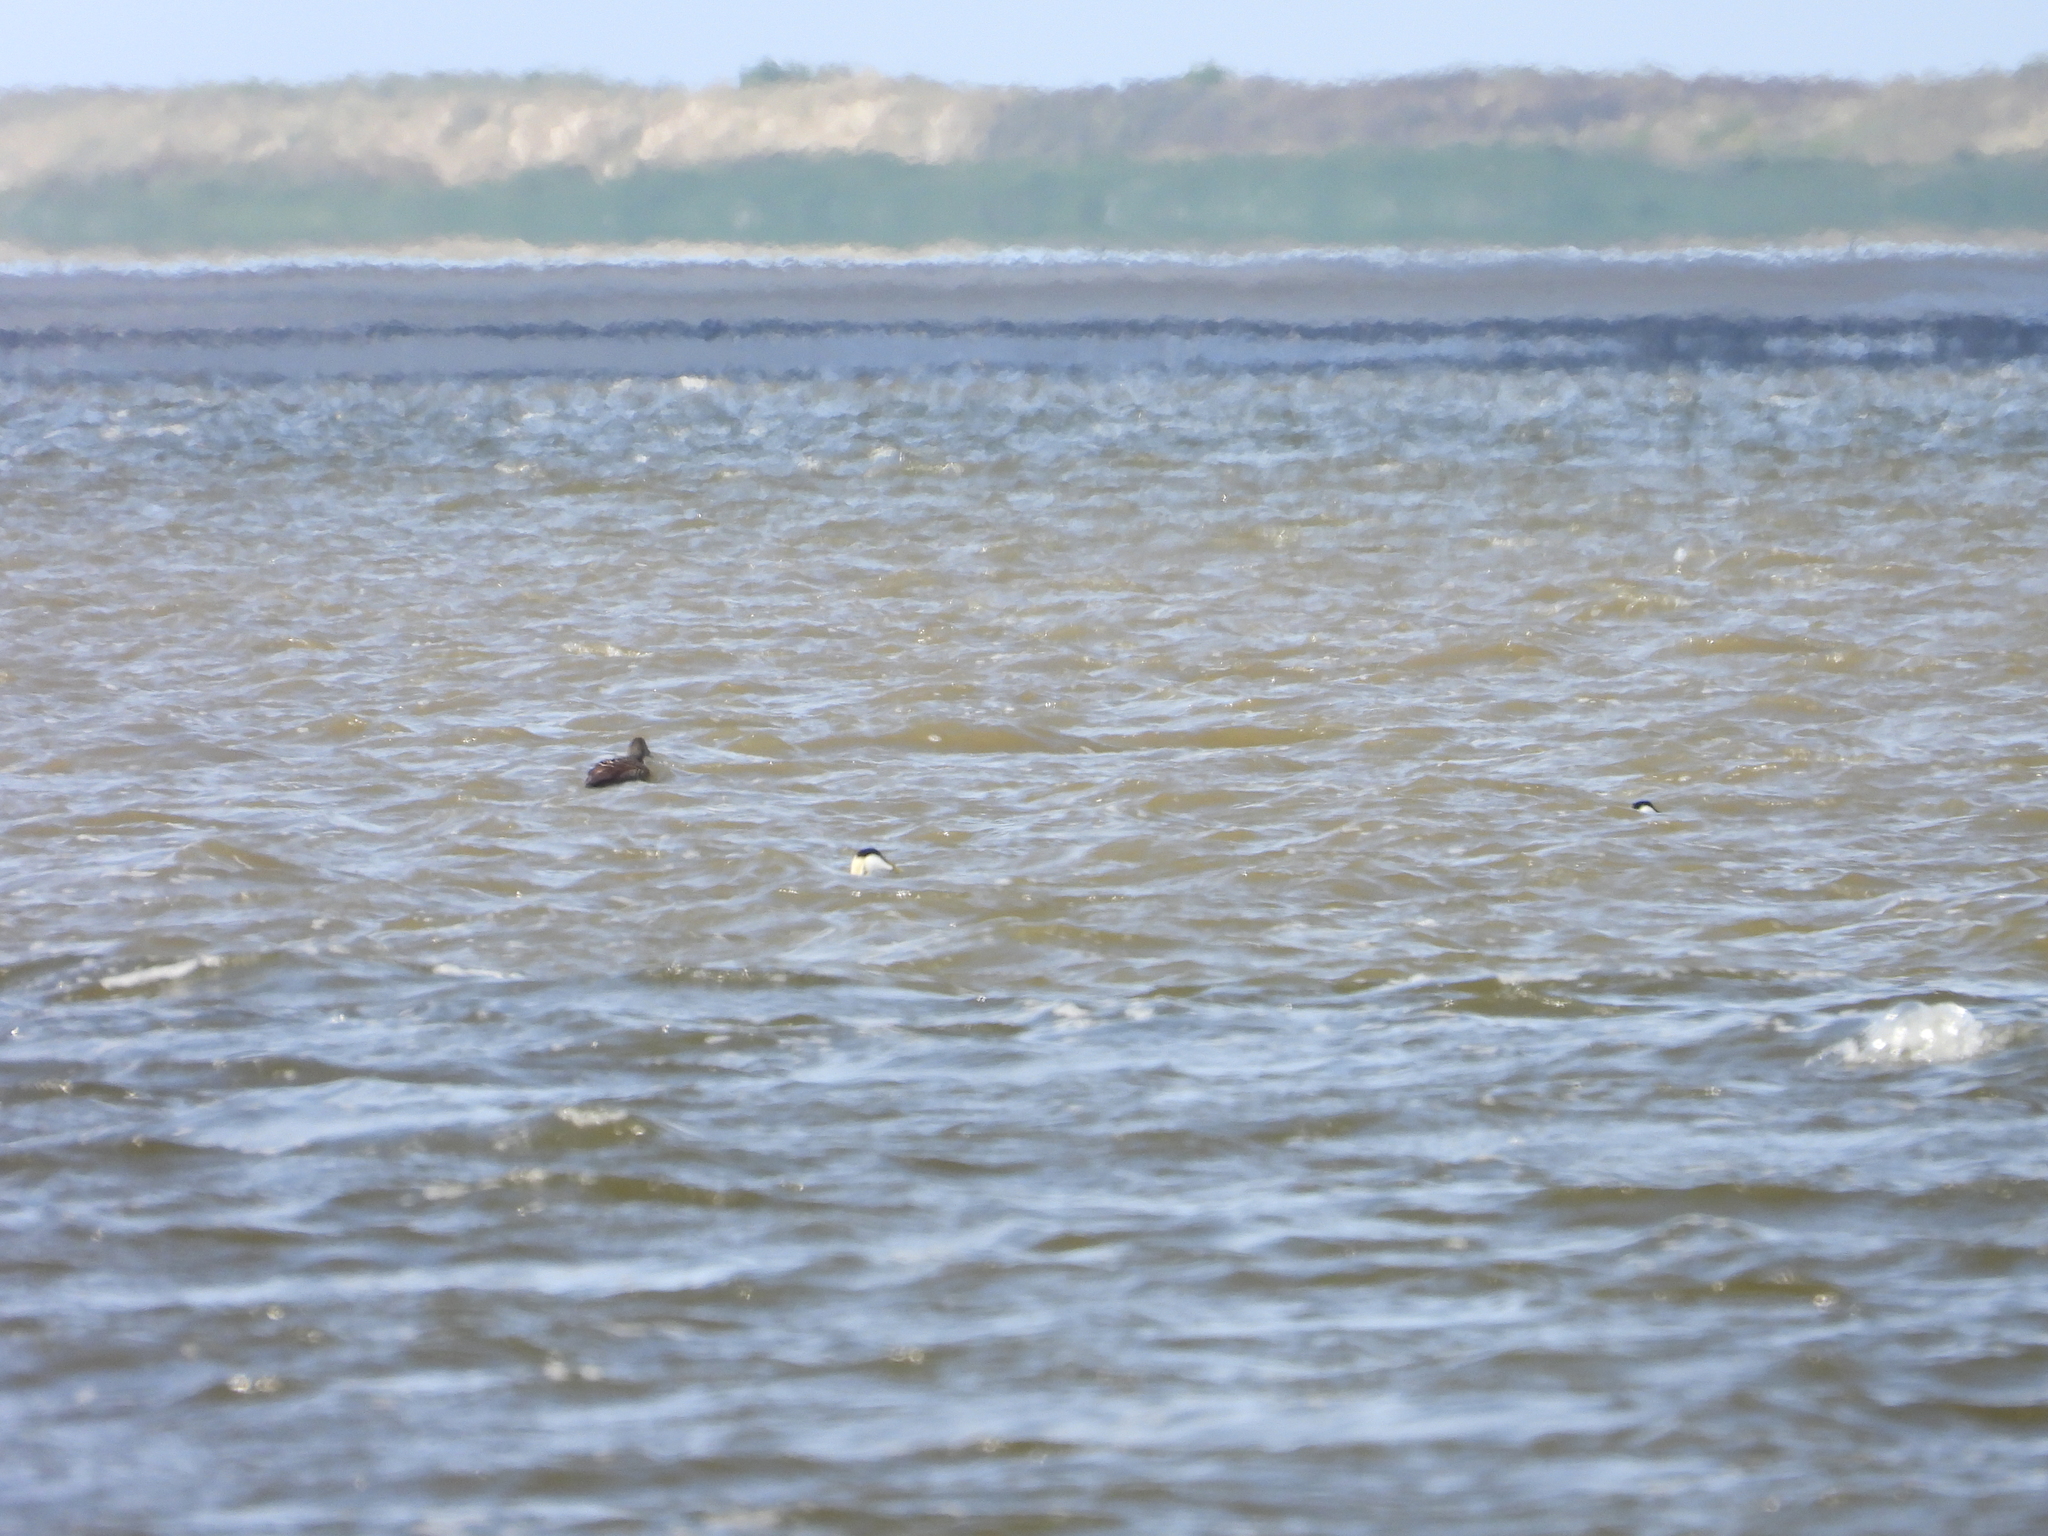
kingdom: Animalia
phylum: Chordata
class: Aves
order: Anseriformes
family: Anatidae
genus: Somateria
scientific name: Somateria mollissima
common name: Common eider
